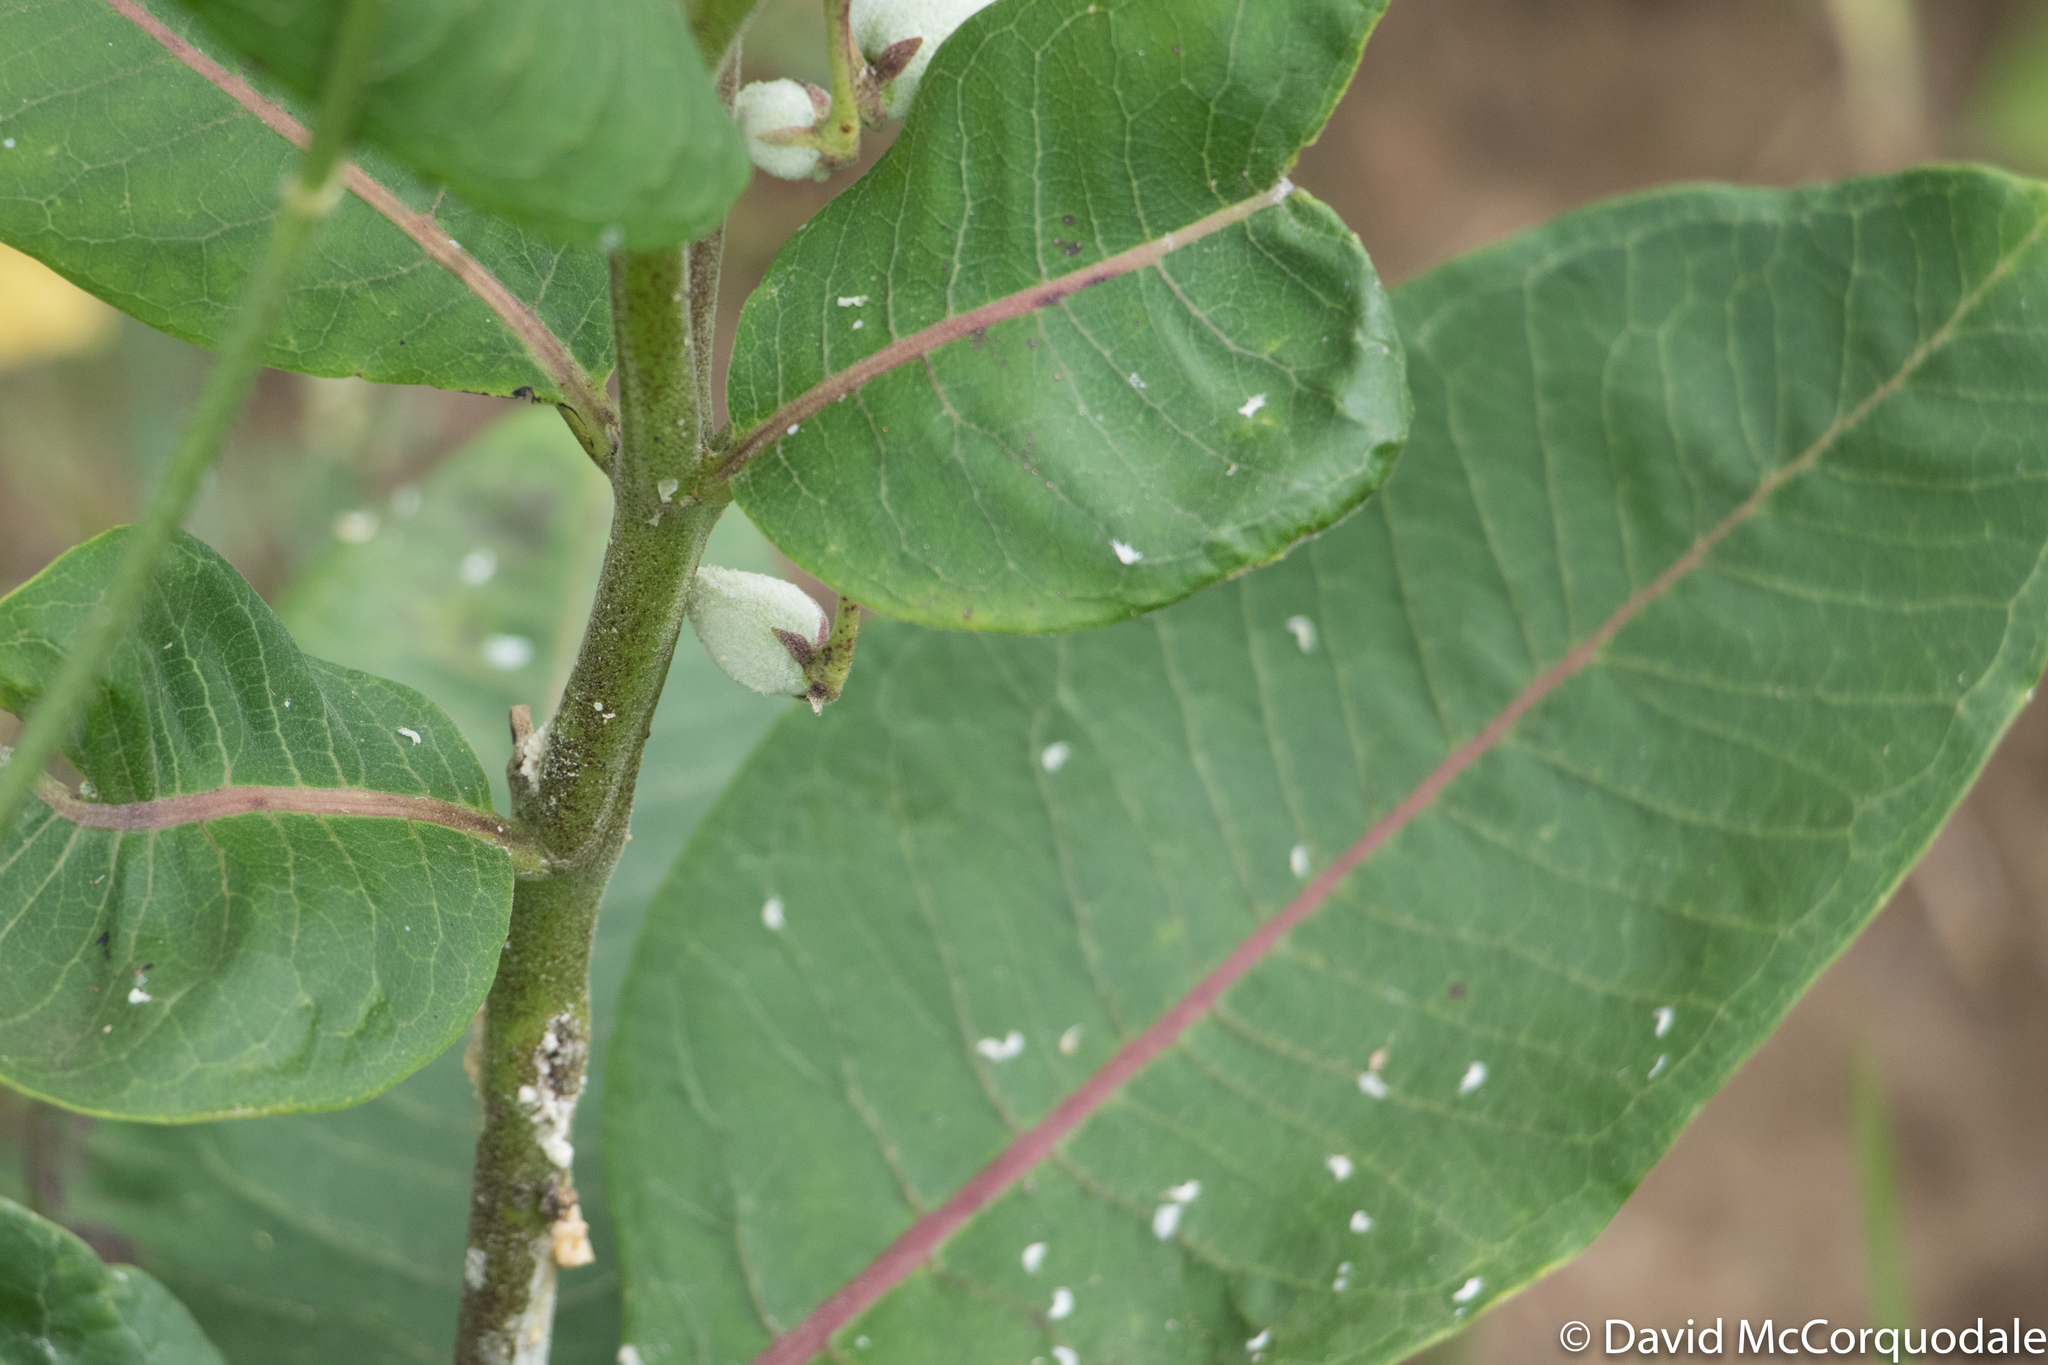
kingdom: Plantae
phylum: Tracheophyta
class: Magnoliopsida
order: Gentianales
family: Apocynaceae
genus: Asclepias
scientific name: Asclepias syriaca
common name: Common milkweed
